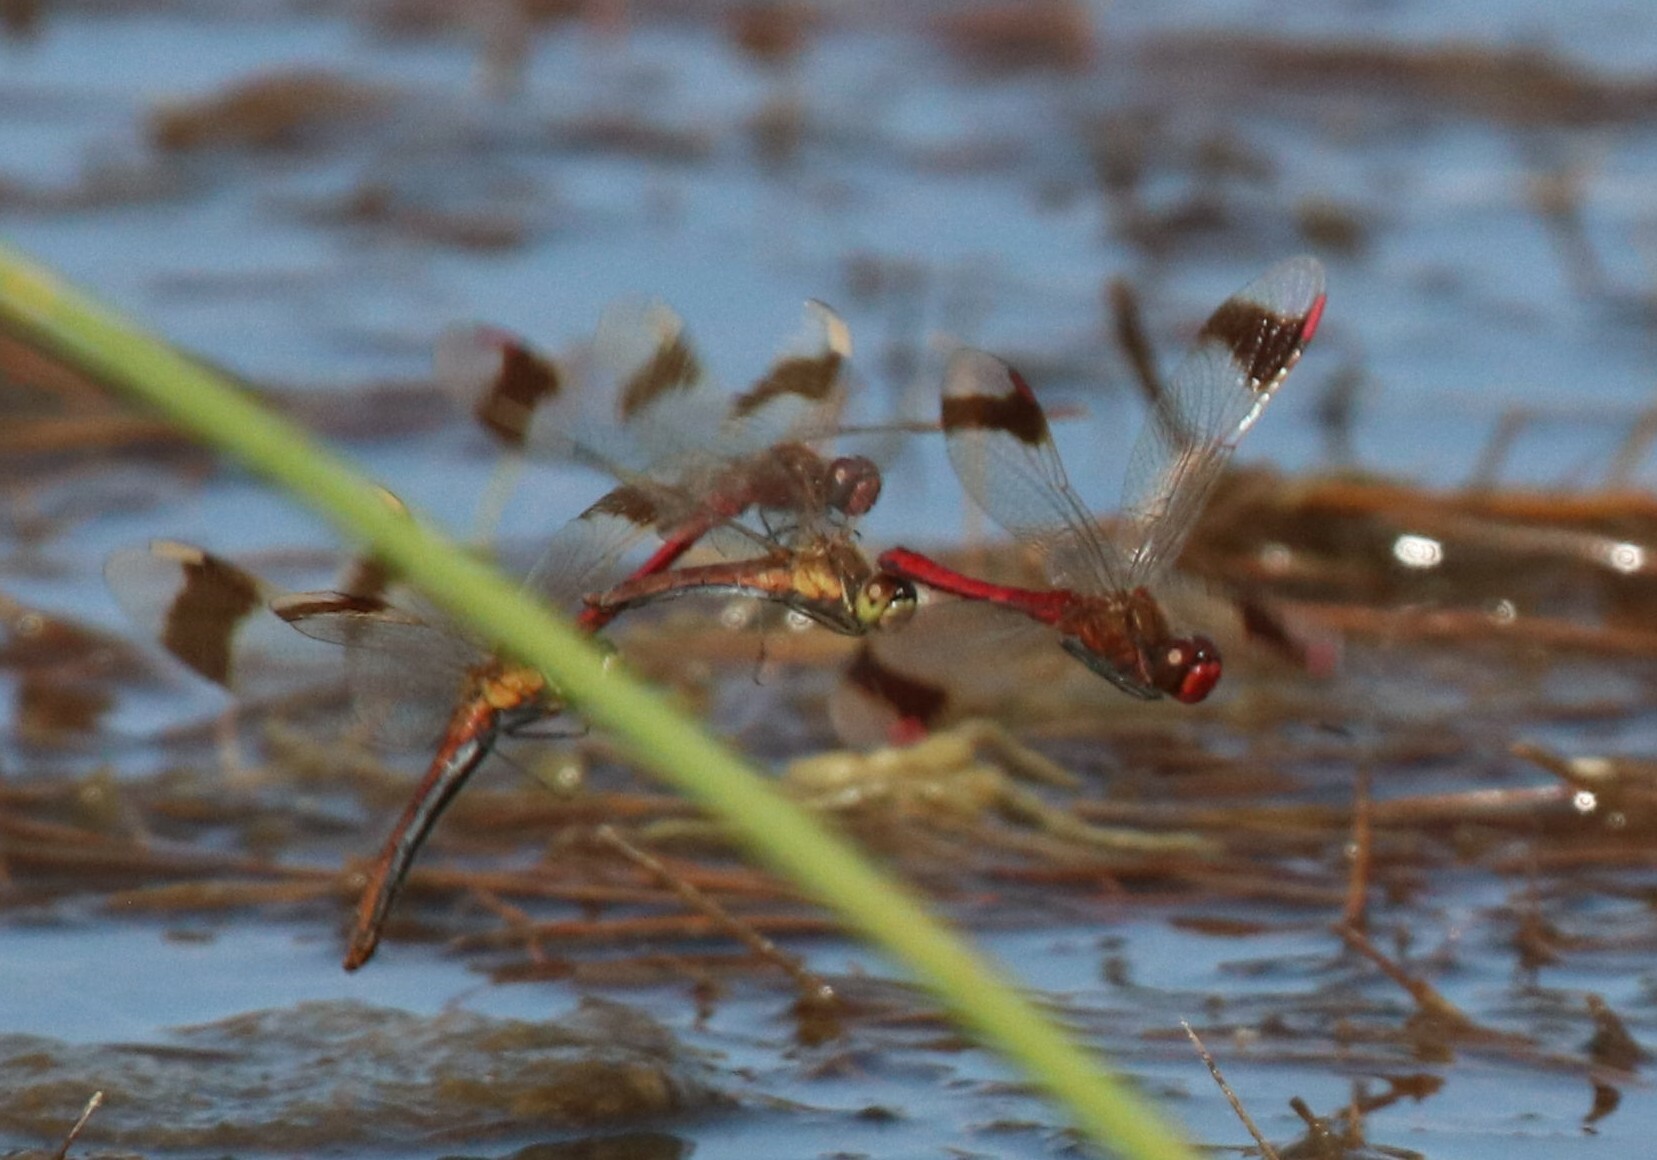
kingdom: Animalia
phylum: Arthropoda
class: Insecta
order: Odonata
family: Libellulidae
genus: Sympetrum
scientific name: Sympetrum pedemontanum
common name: Banded darter
